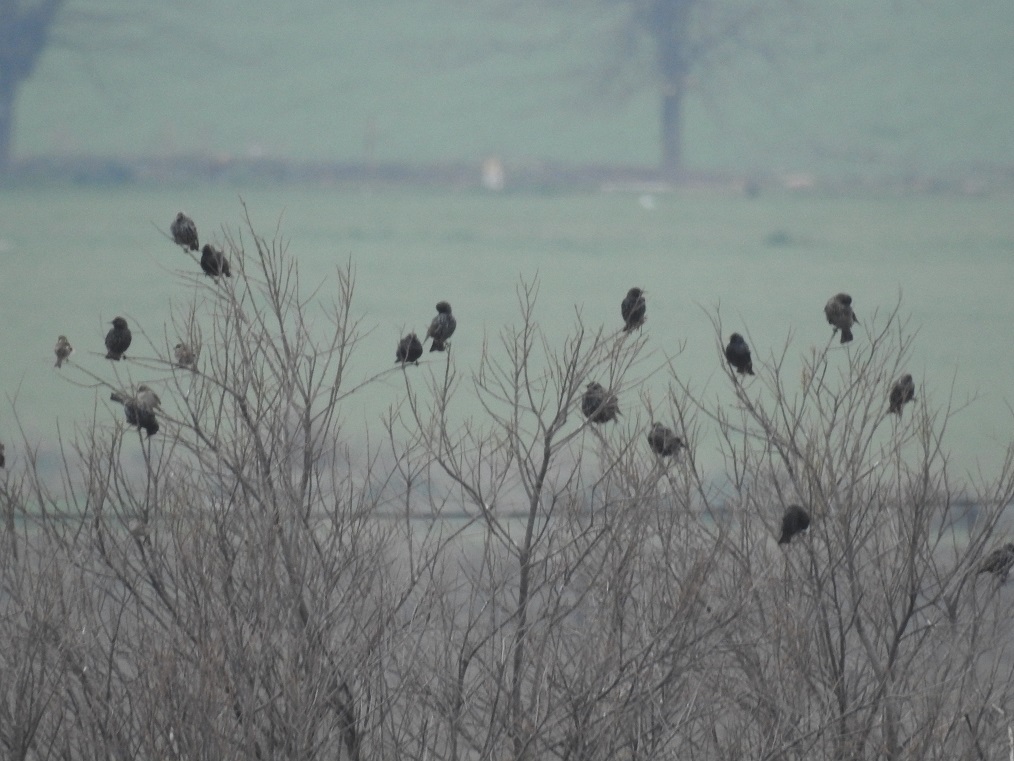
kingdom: Animalia
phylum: Chordata
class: Aves
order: Passeriformes
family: Sturnidae
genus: Sturnus
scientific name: Sturnus vulgaris
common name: Common starling
